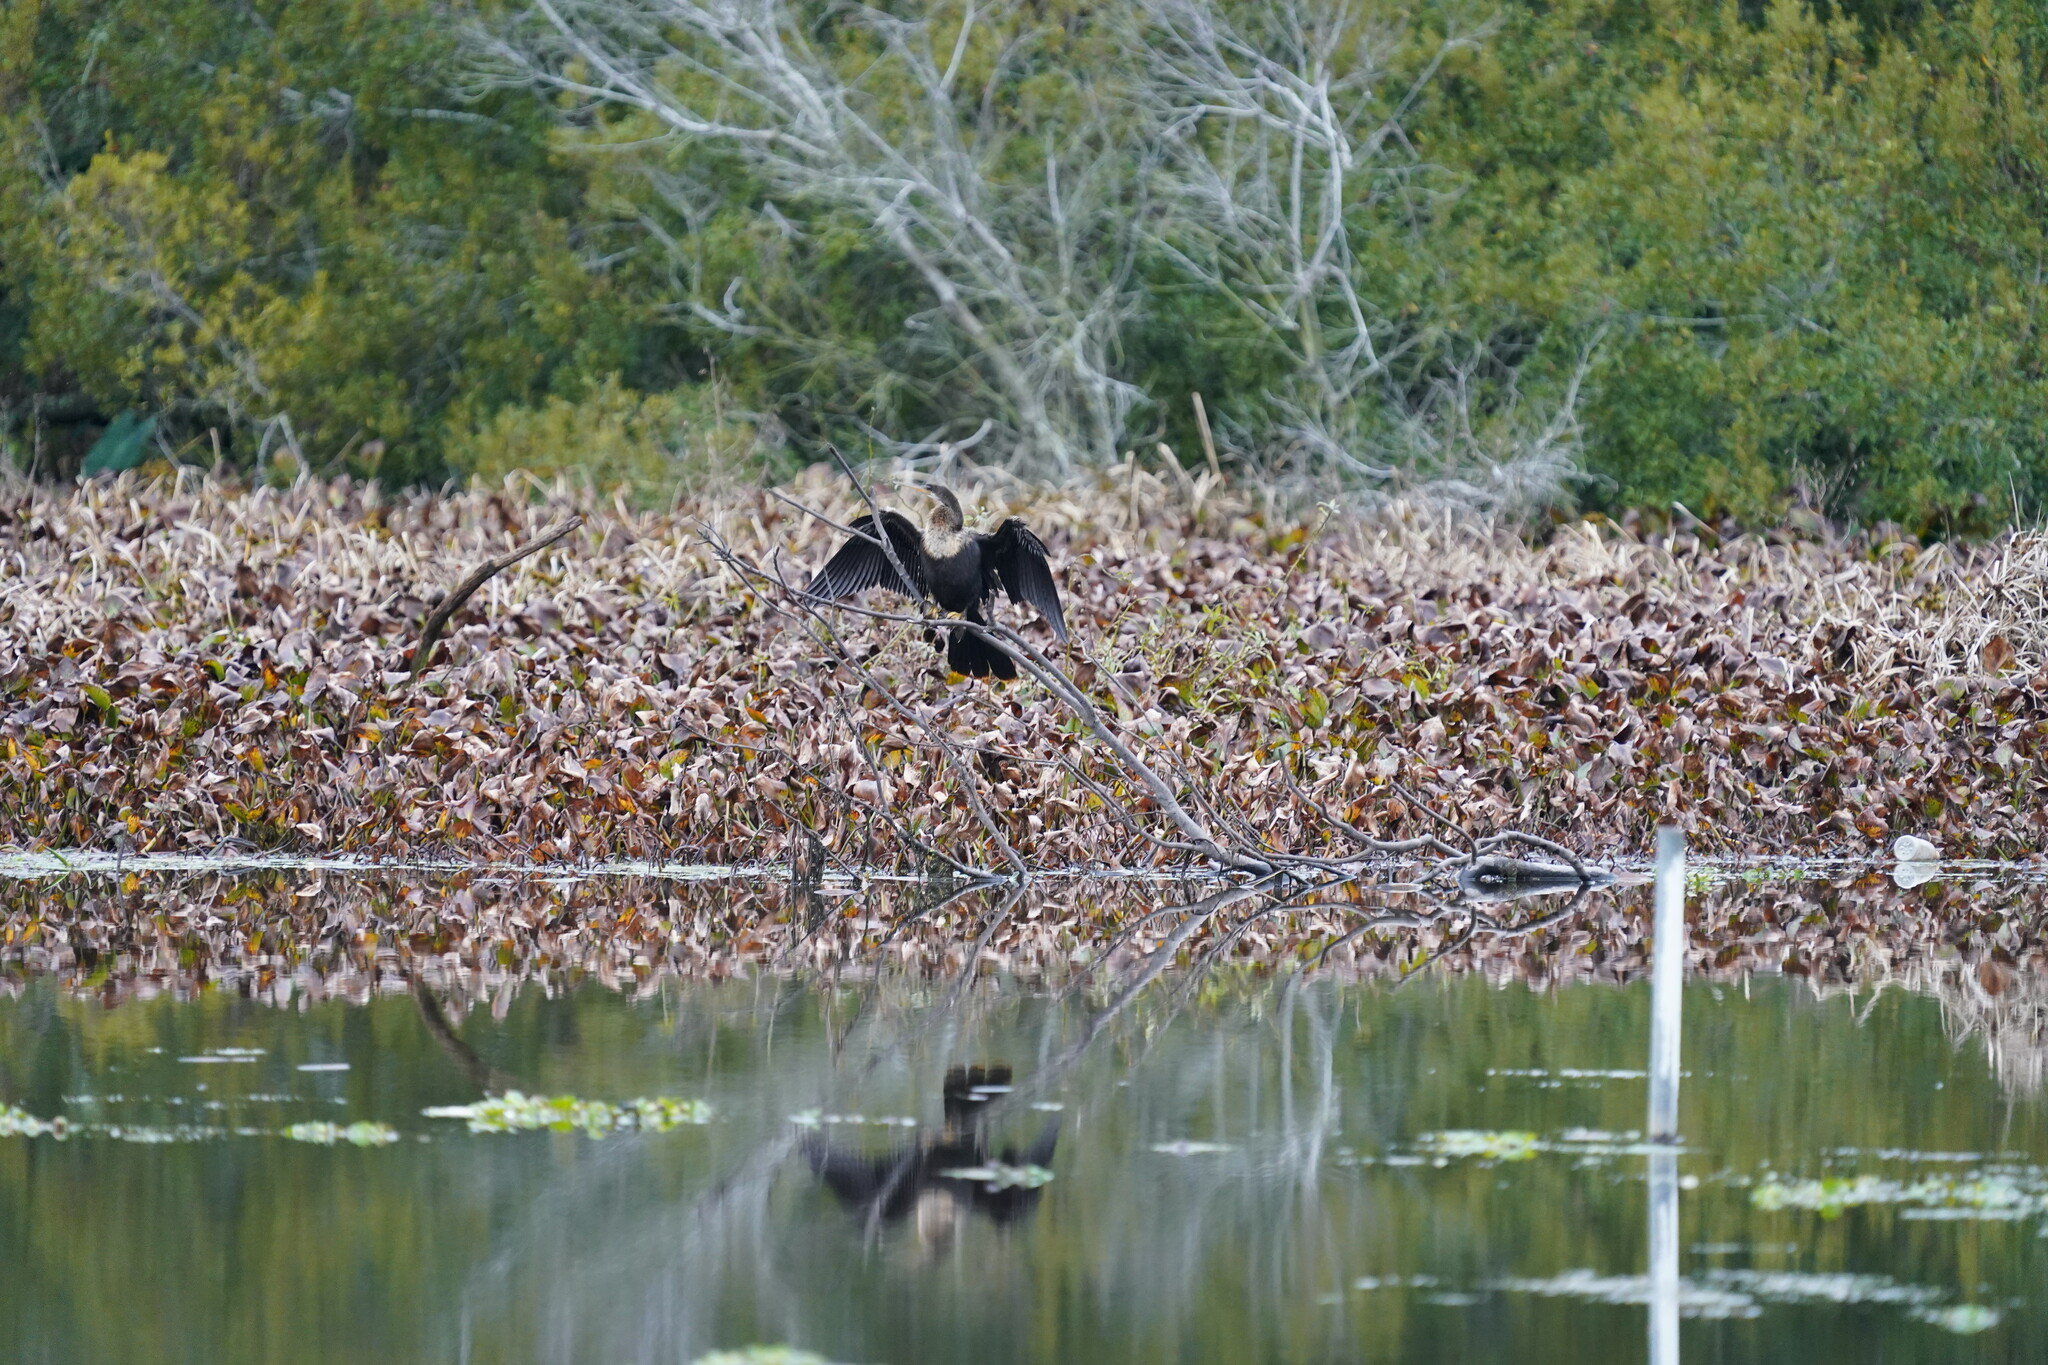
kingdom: Animalia
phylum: Chordata
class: Aves
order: Suliformes
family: Anhingidae
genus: Anhinga
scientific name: Anhinga anhinga
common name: Anhinga
